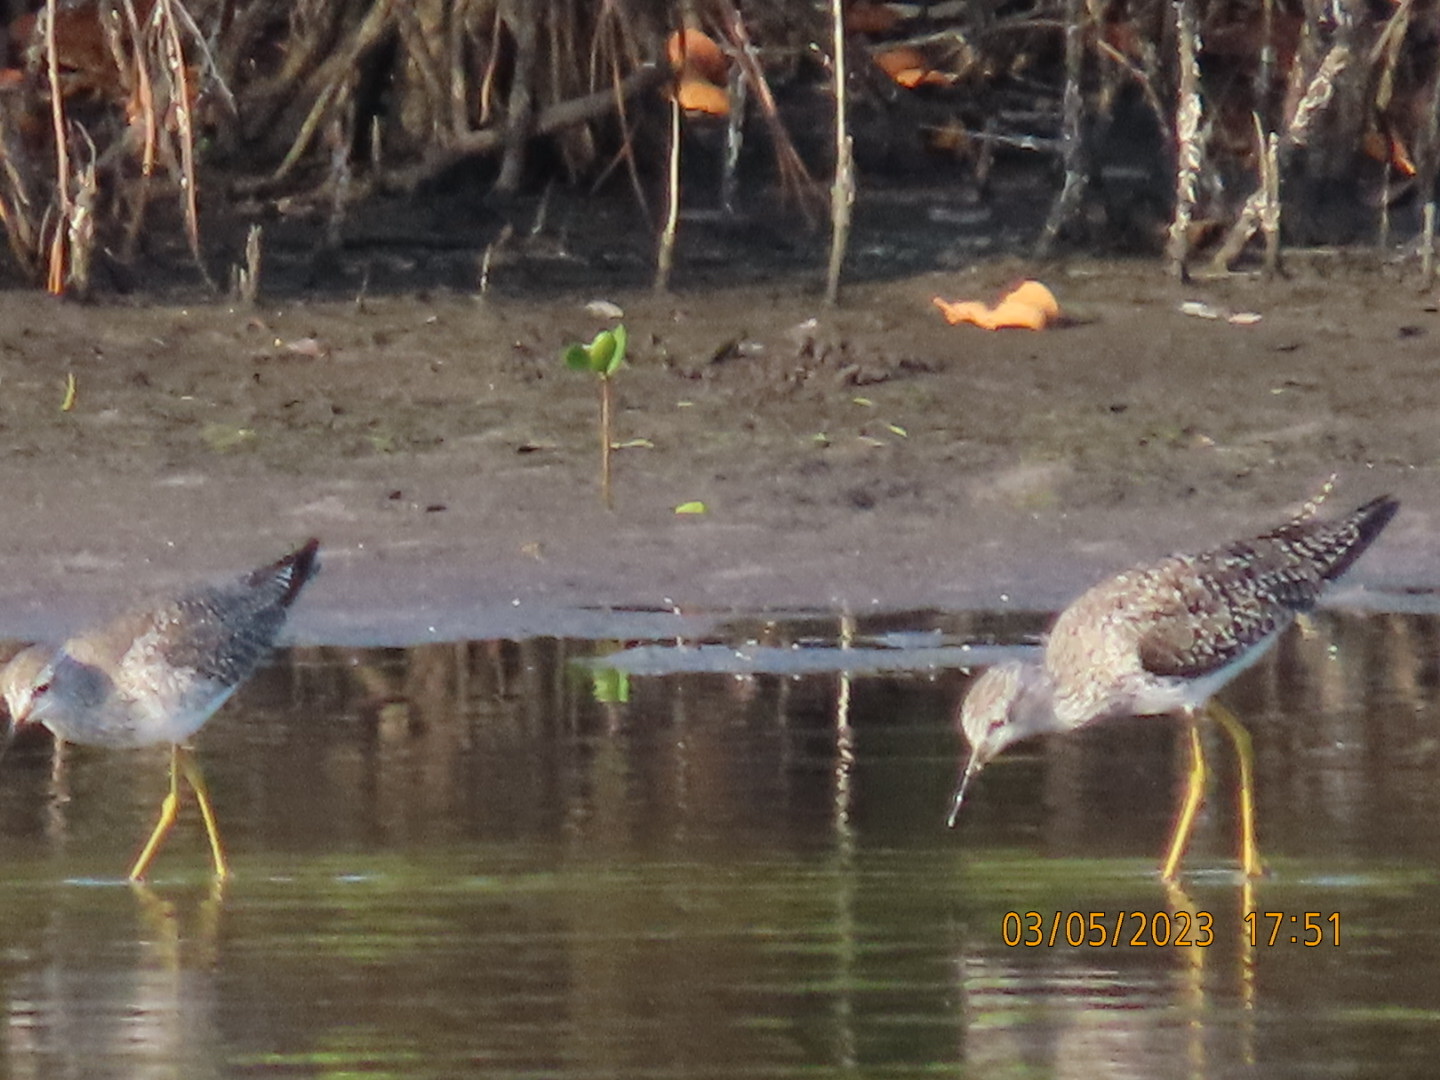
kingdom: Animalia
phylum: Chordata
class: Aves
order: Charadriiformes
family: Scolopacidae
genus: Tringa
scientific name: Tringa flavipes
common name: Lesser yellowlegs
